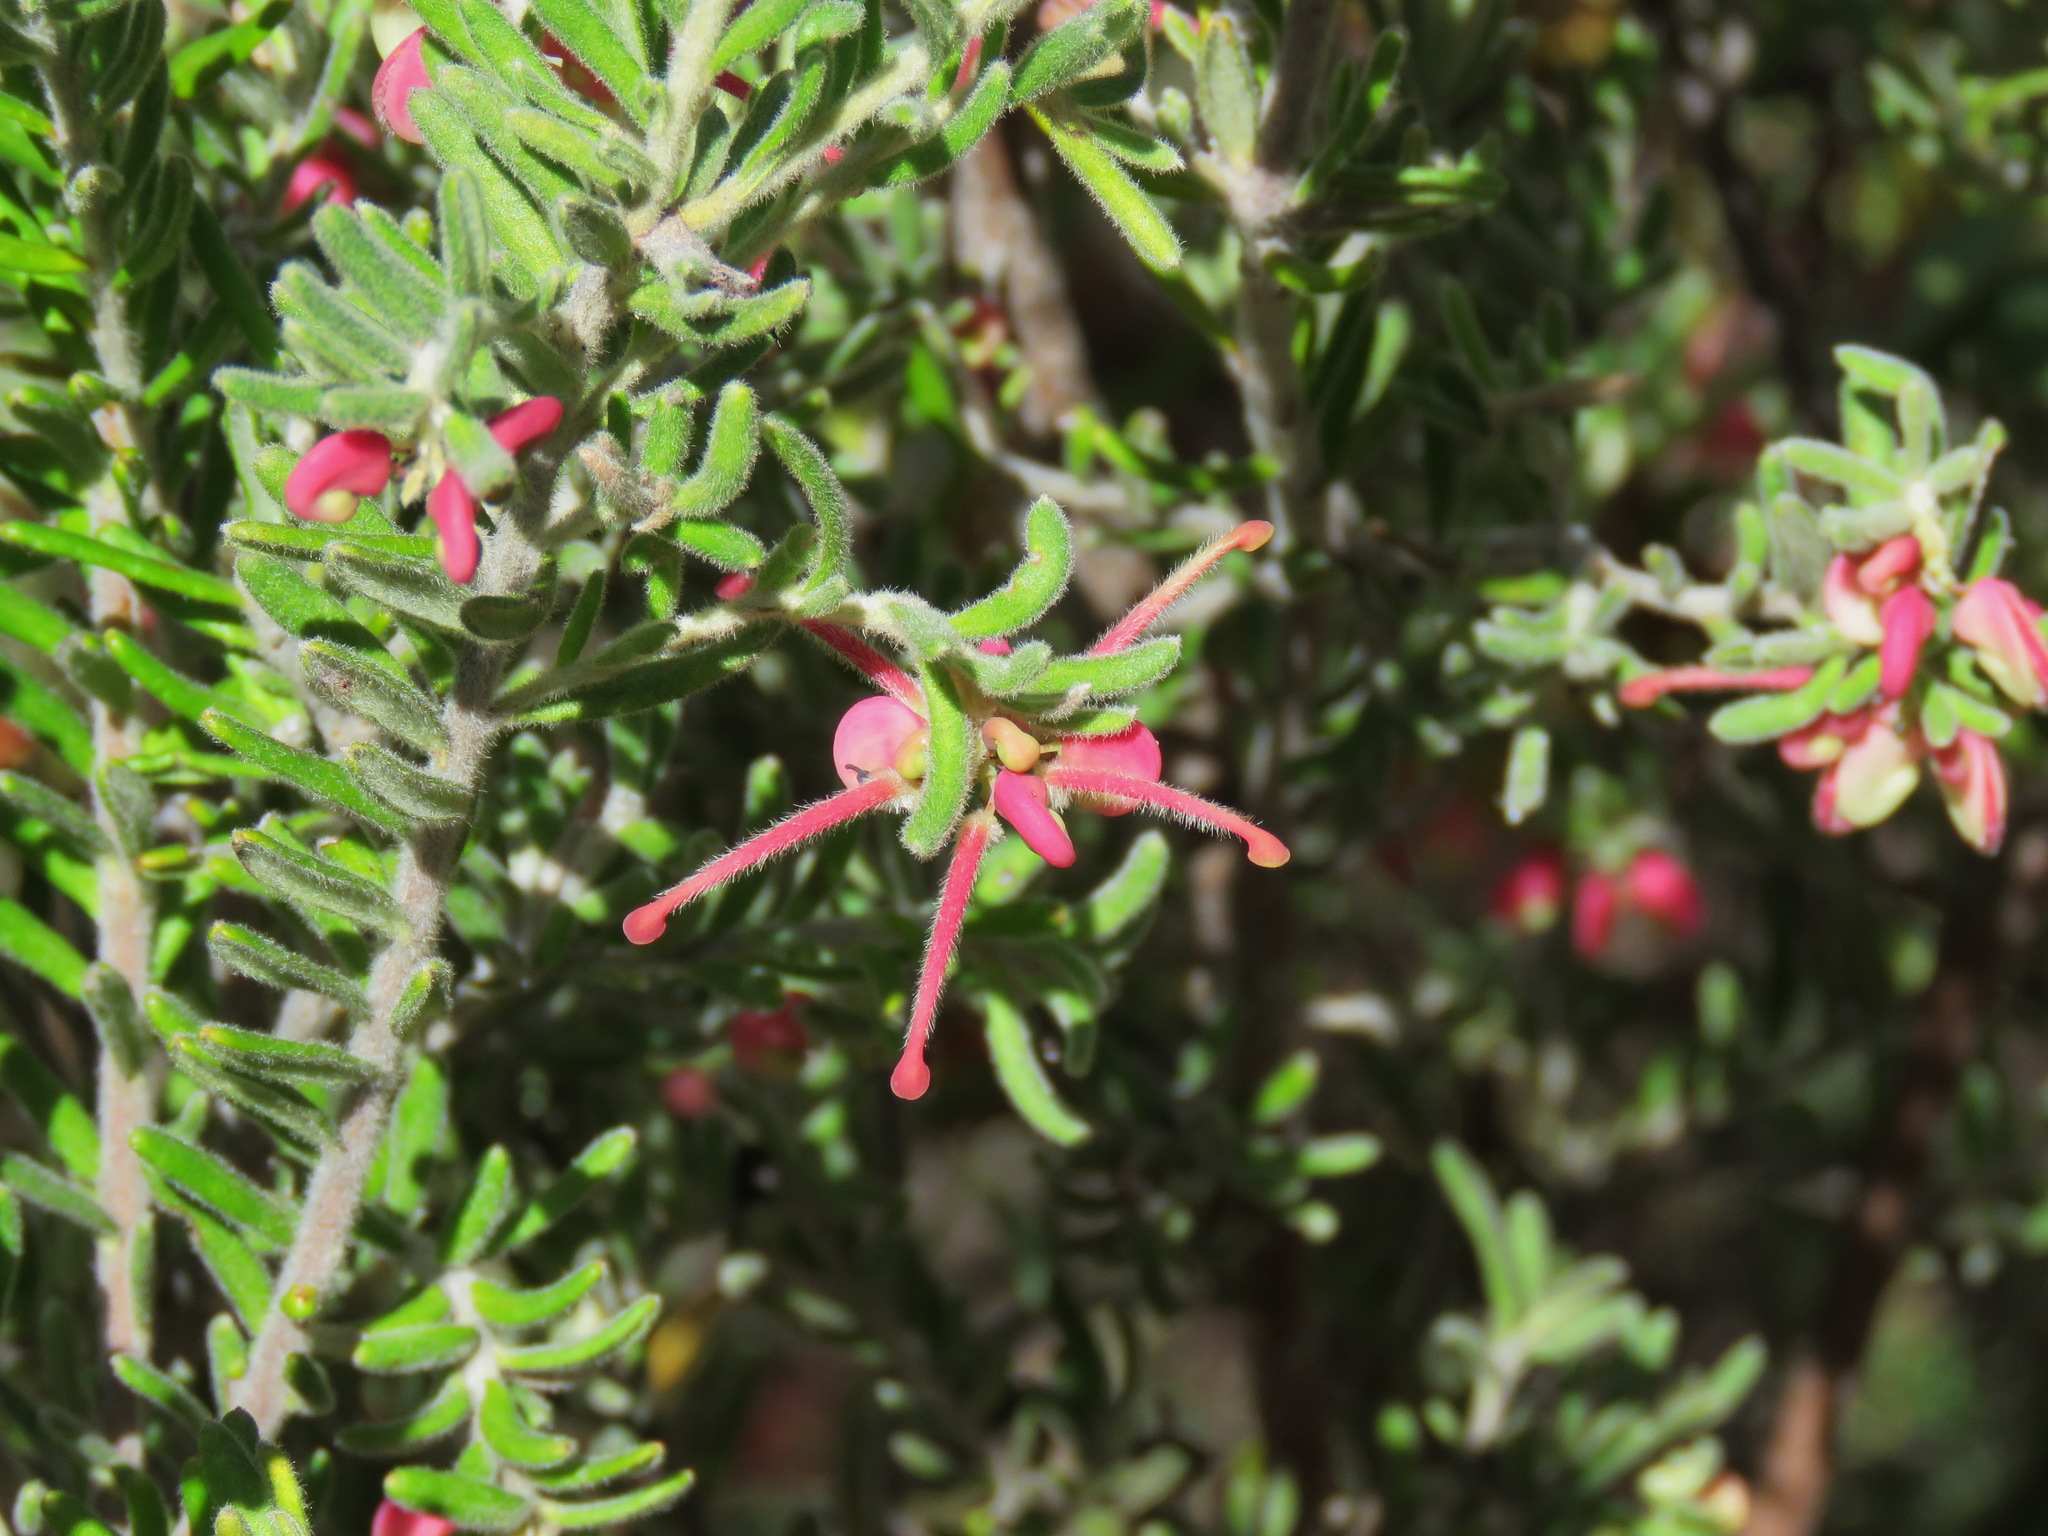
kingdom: Plantae
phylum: Tracheophyta
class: Magnoliopsida
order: Proteales
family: Proteaceae
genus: Grevillea
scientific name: Grevillea lanigera
